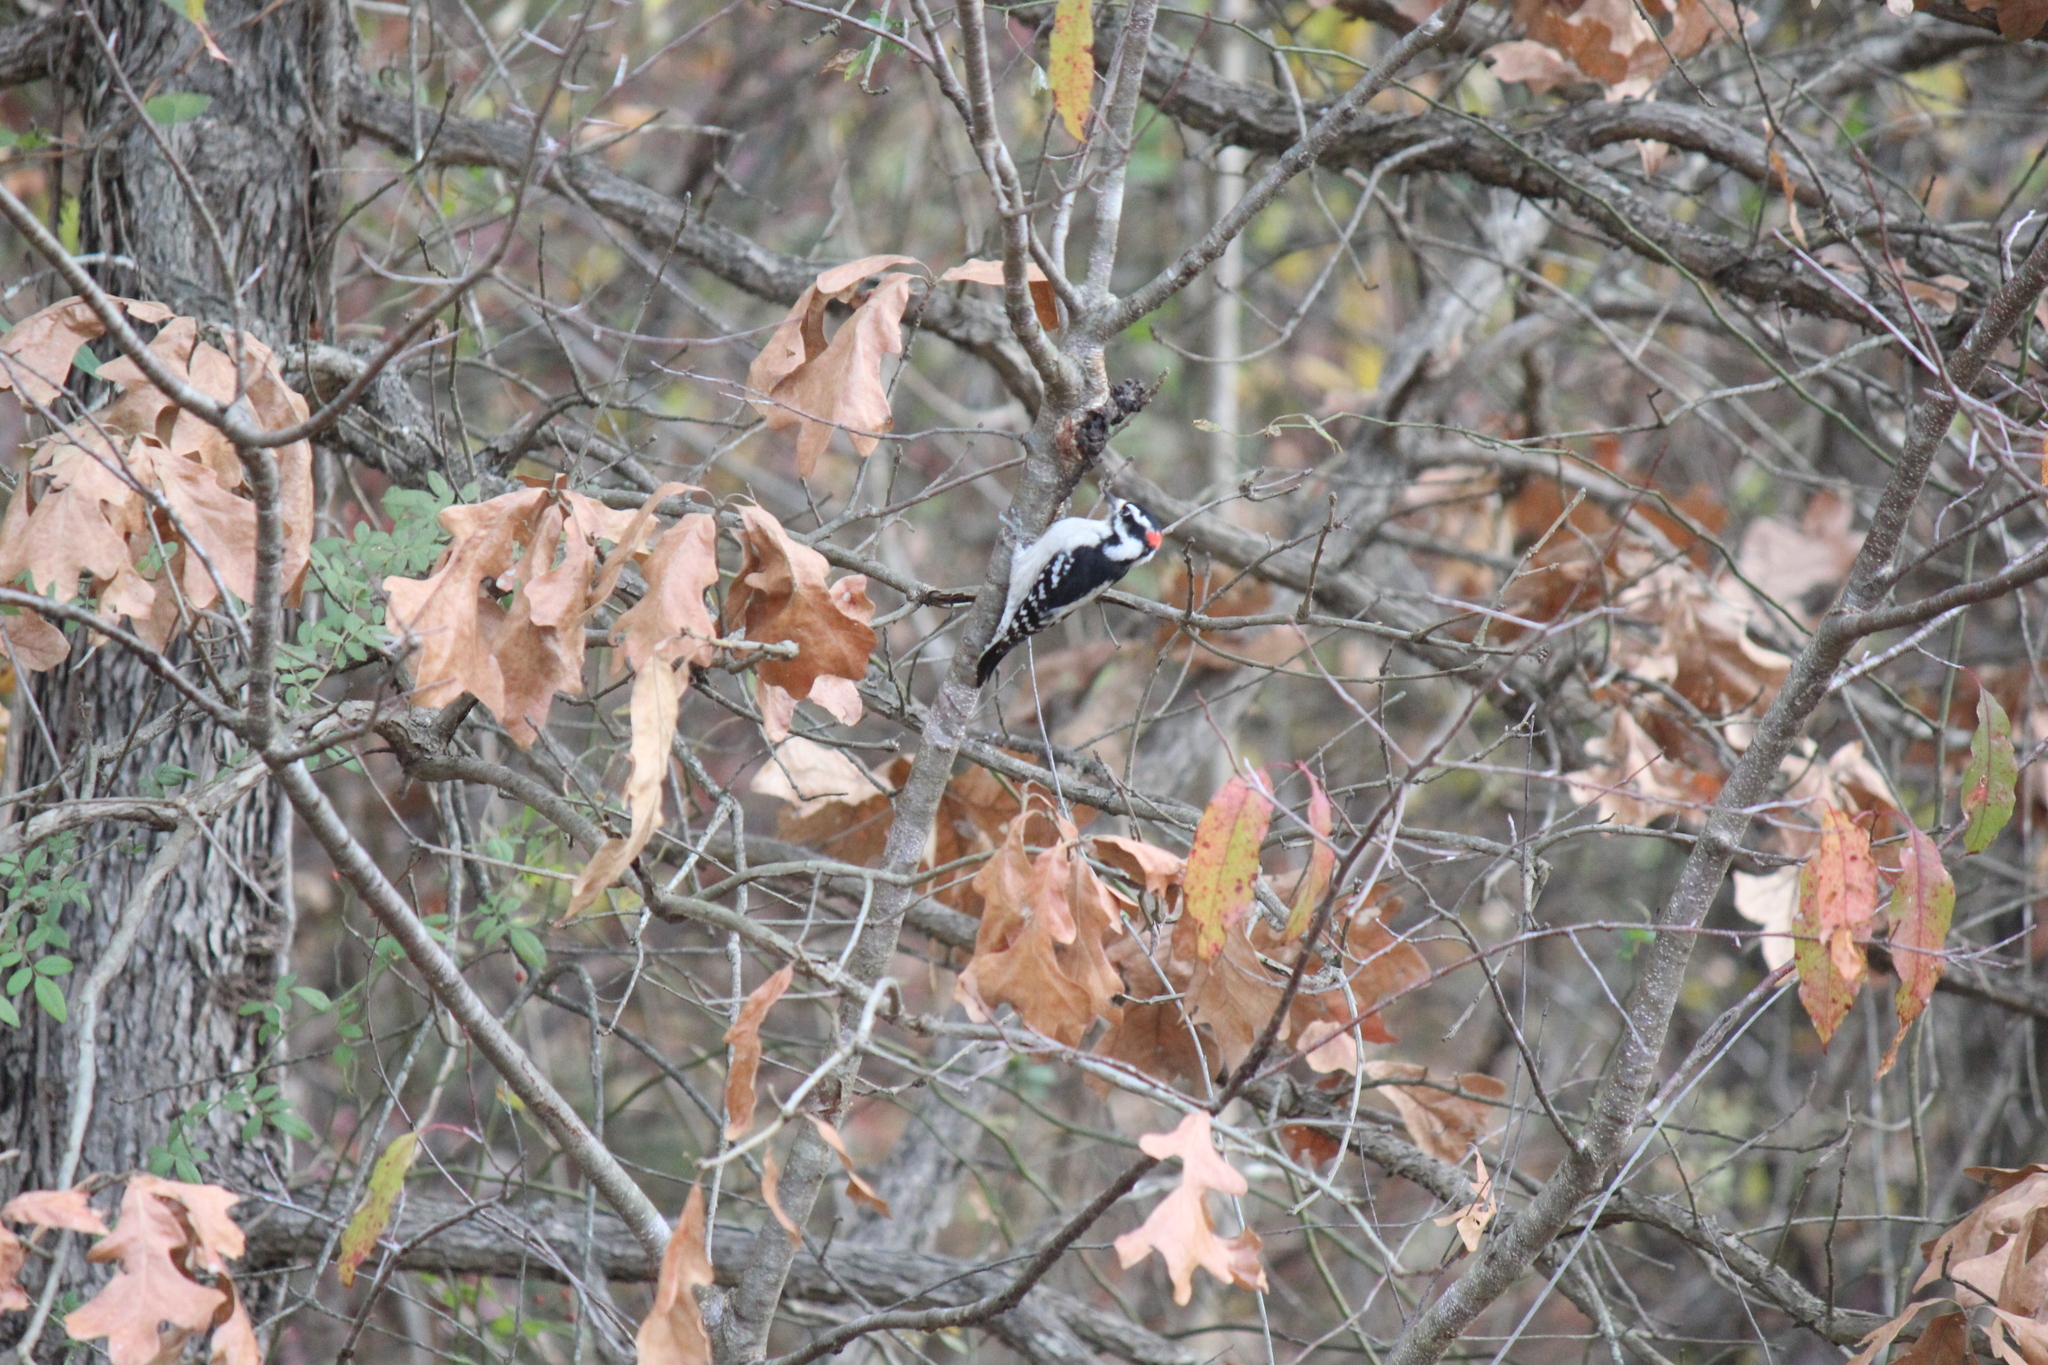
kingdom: Animalia
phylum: Chordata
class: Aves
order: Piciformes
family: Picidae
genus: Dryobates
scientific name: Dryobates pubescens
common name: Downy woodpecker
